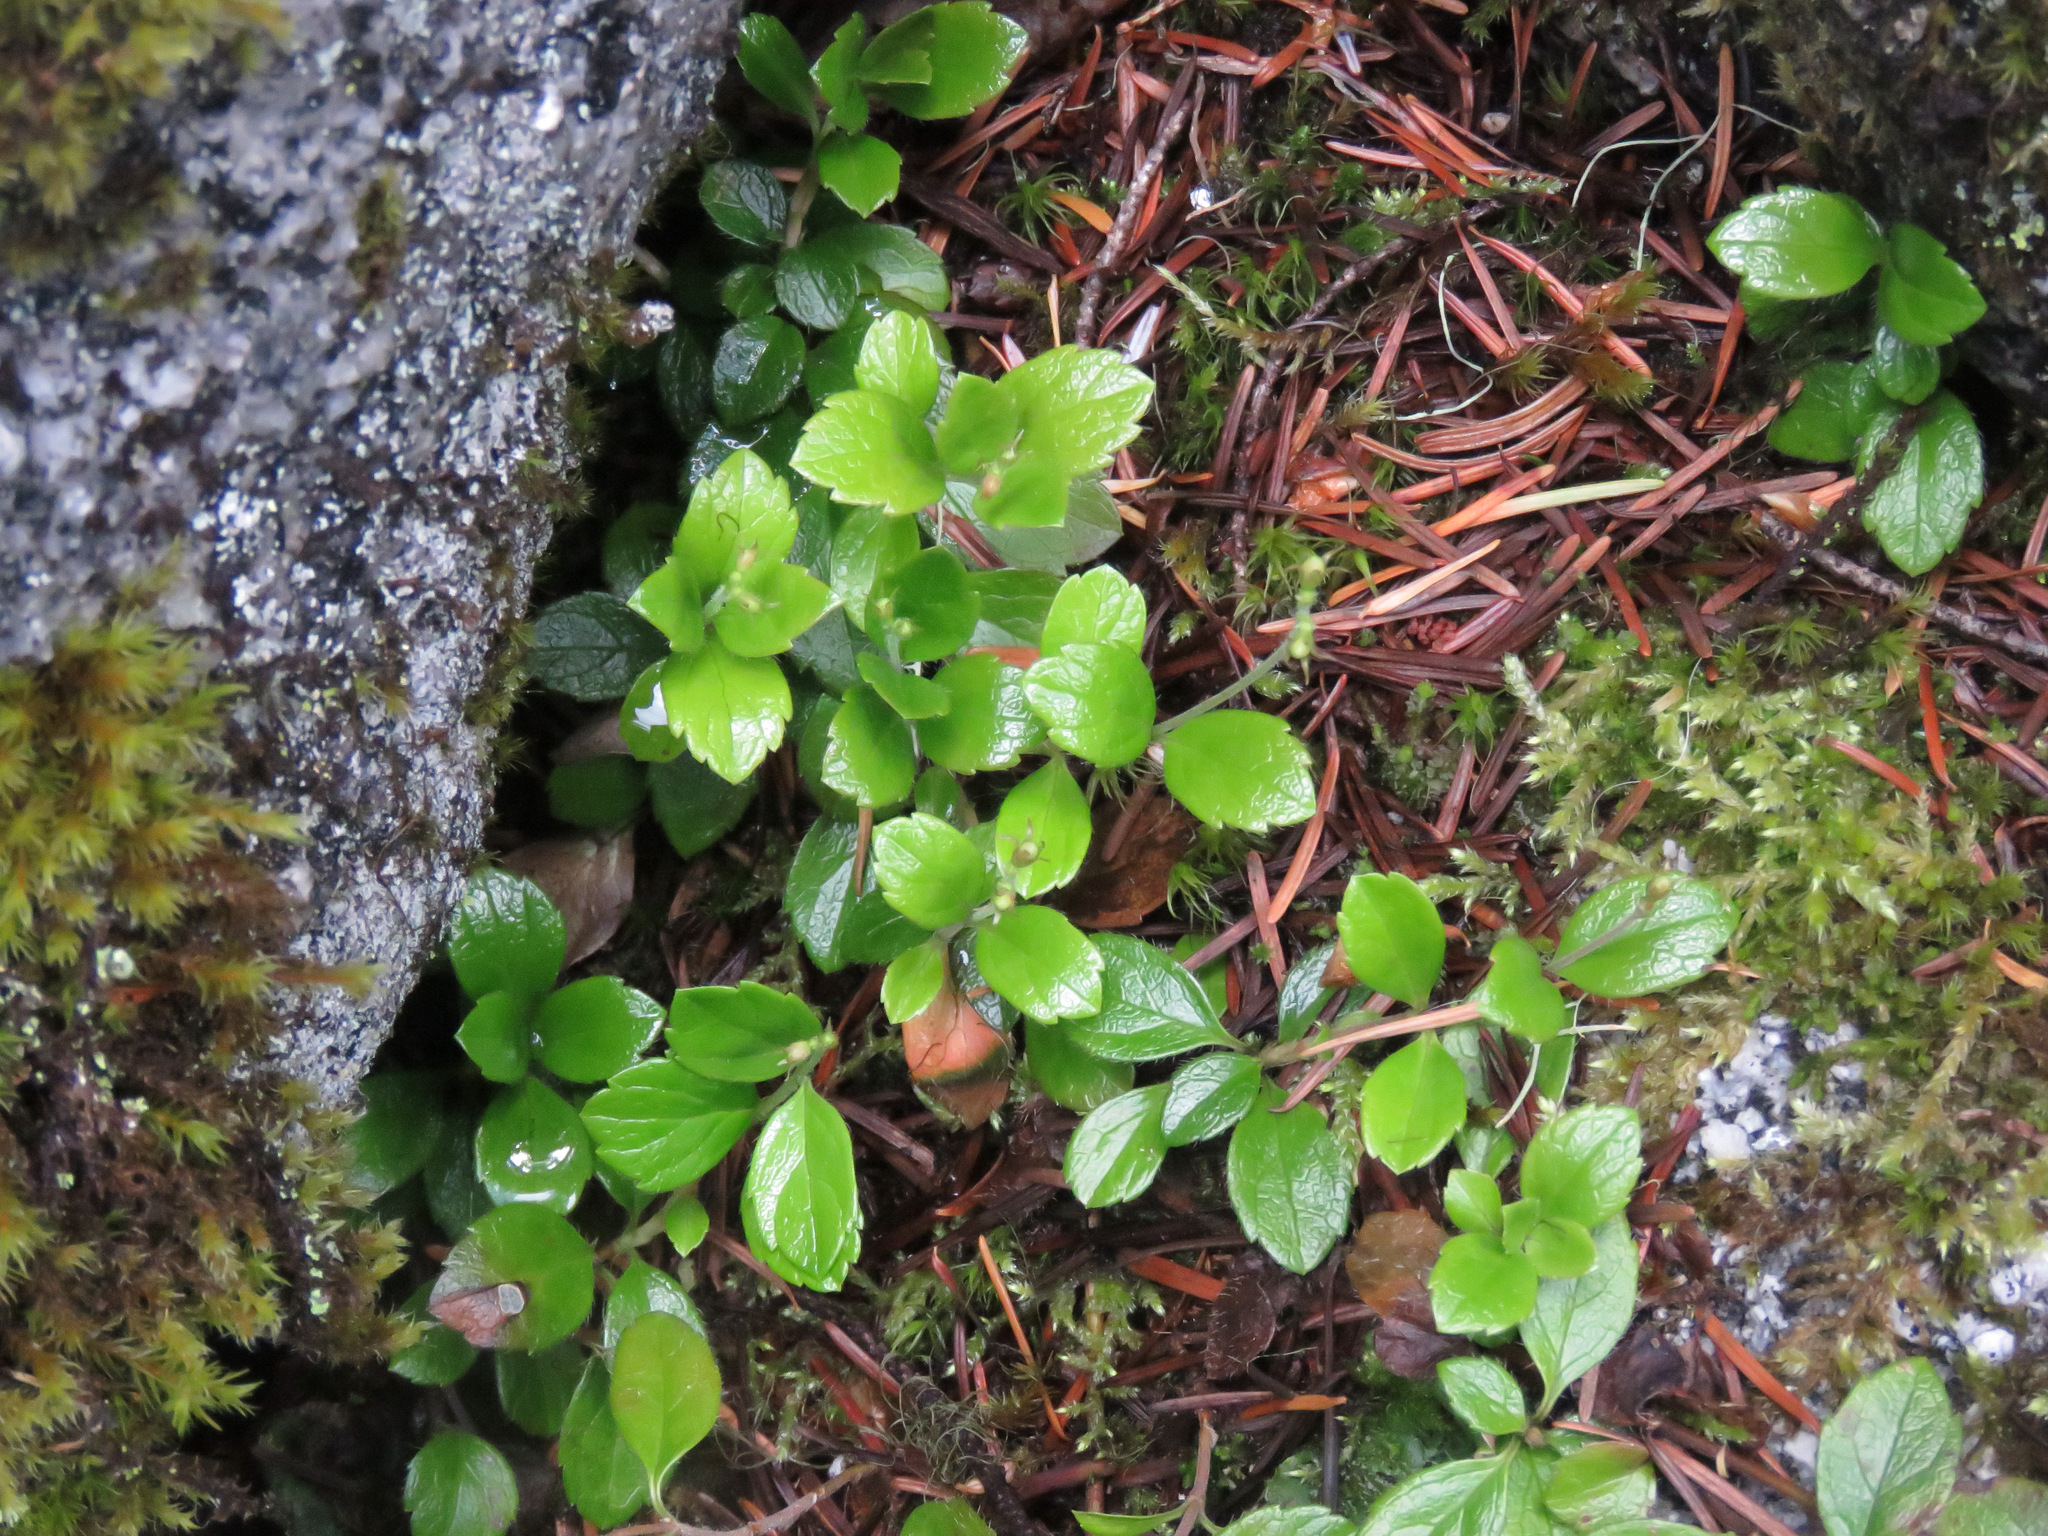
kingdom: Plantae
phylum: Tracheophyta
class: Magnoliopsida
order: Dipsacales
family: Caprifoliaceae
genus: Linnaea
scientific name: Linnaea borealis
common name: Twinflower
